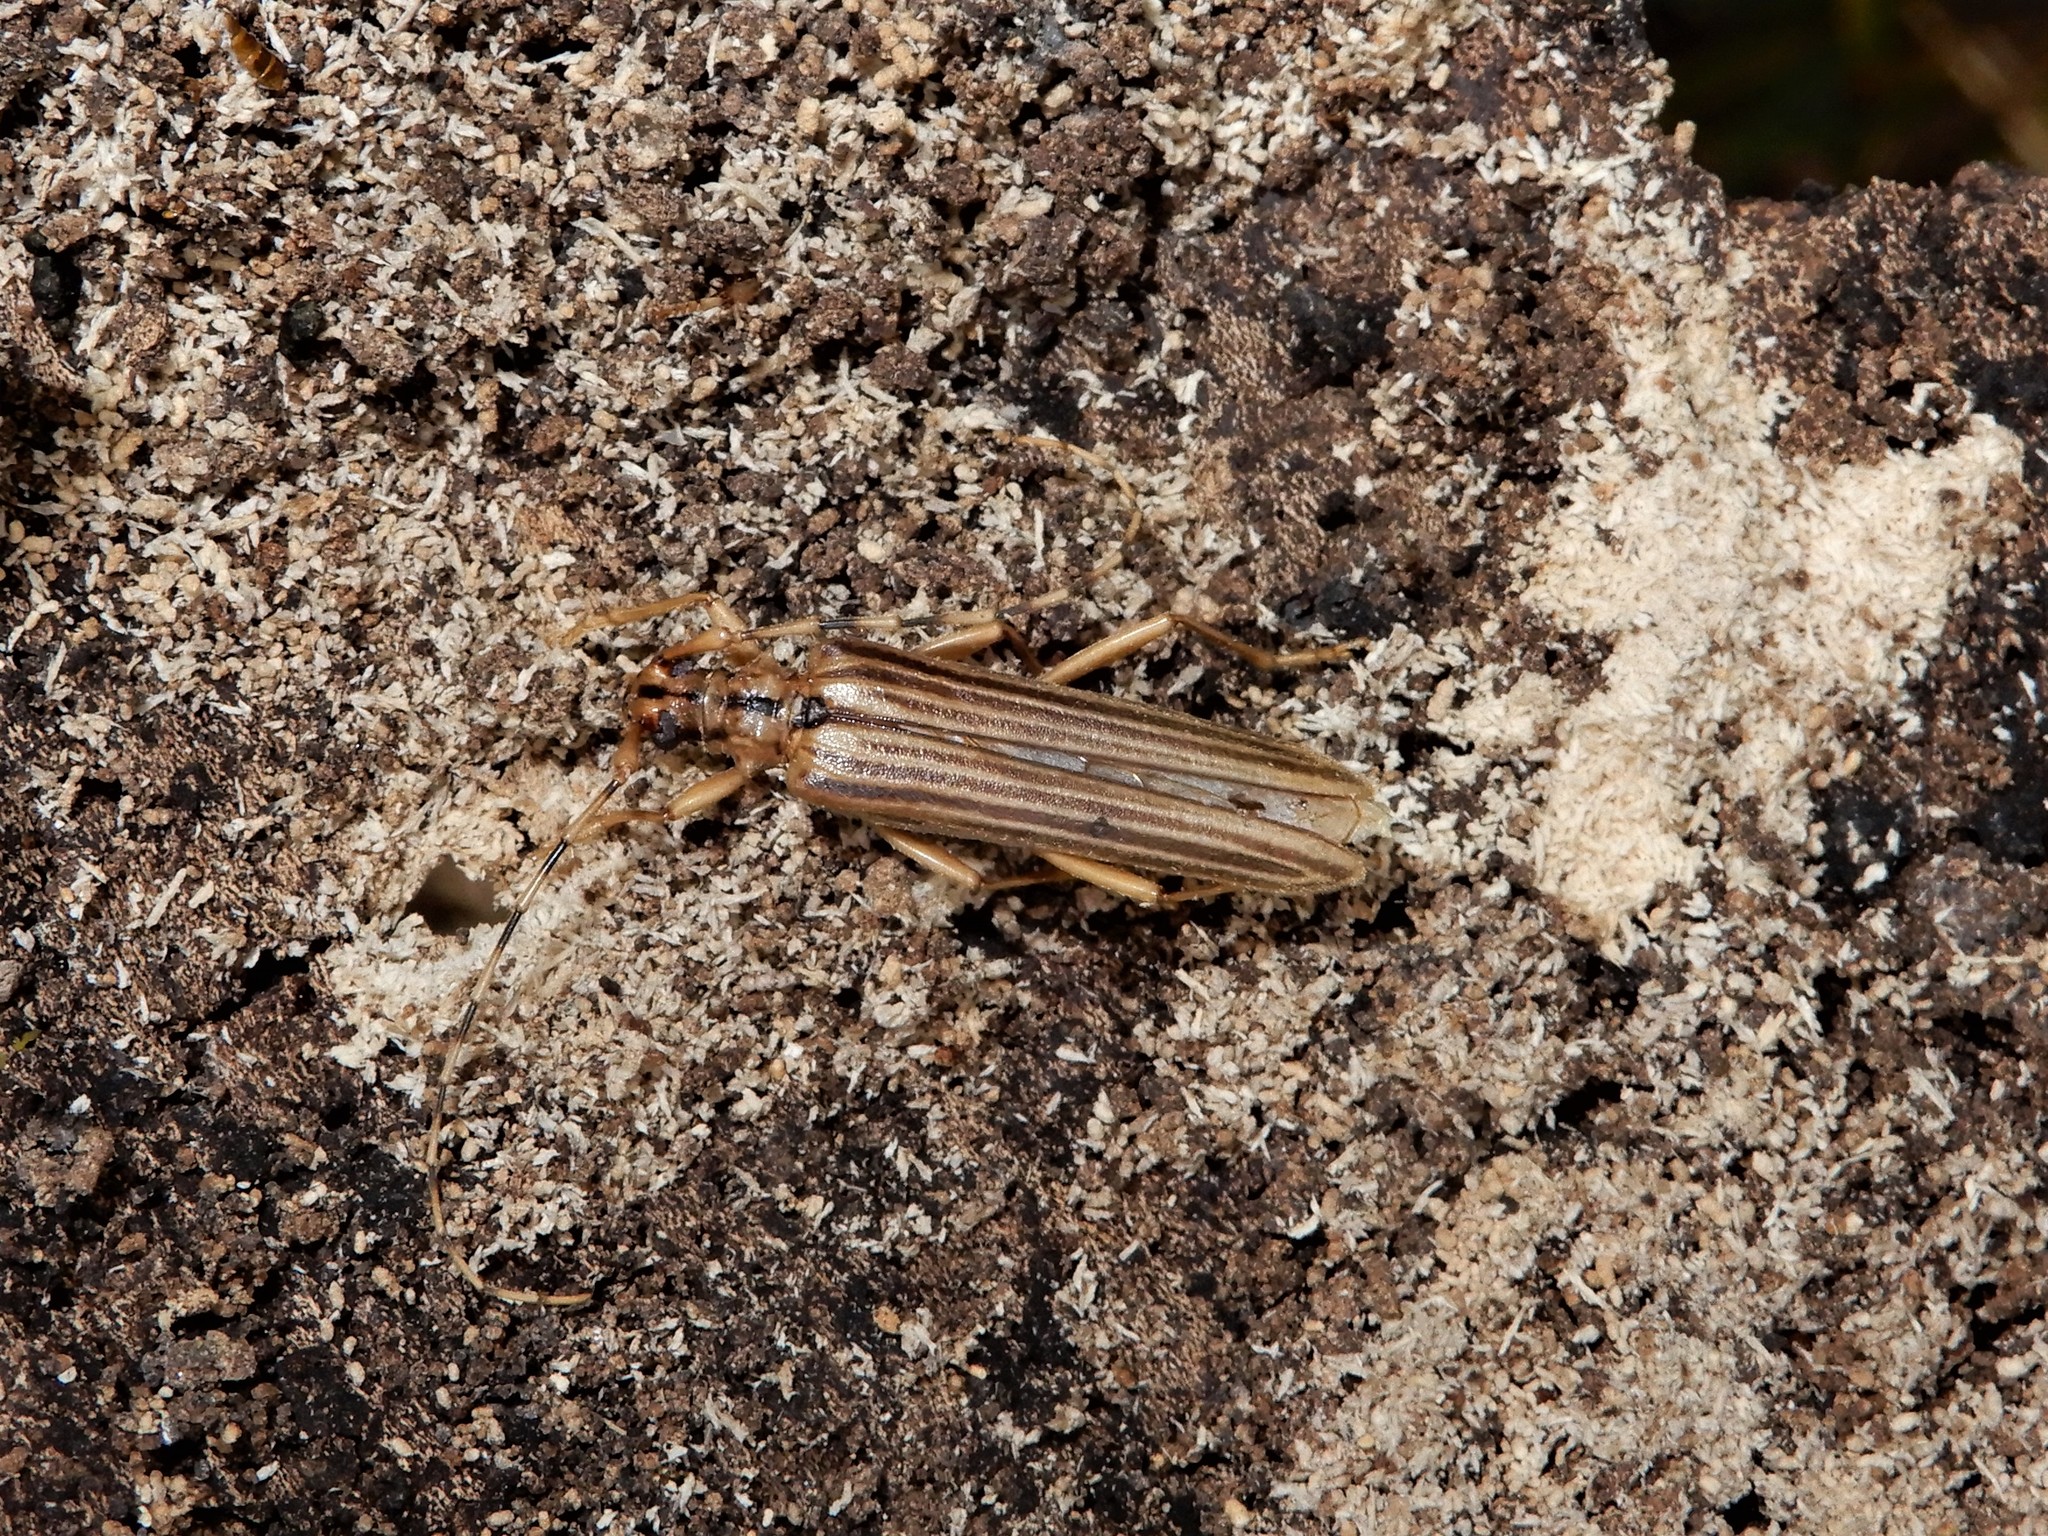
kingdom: Animalia
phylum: Arthropoda
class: Insecta
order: Coleoptera
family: Cerambycidae
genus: Leptachrous
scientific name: Leptachrous strigipennis
